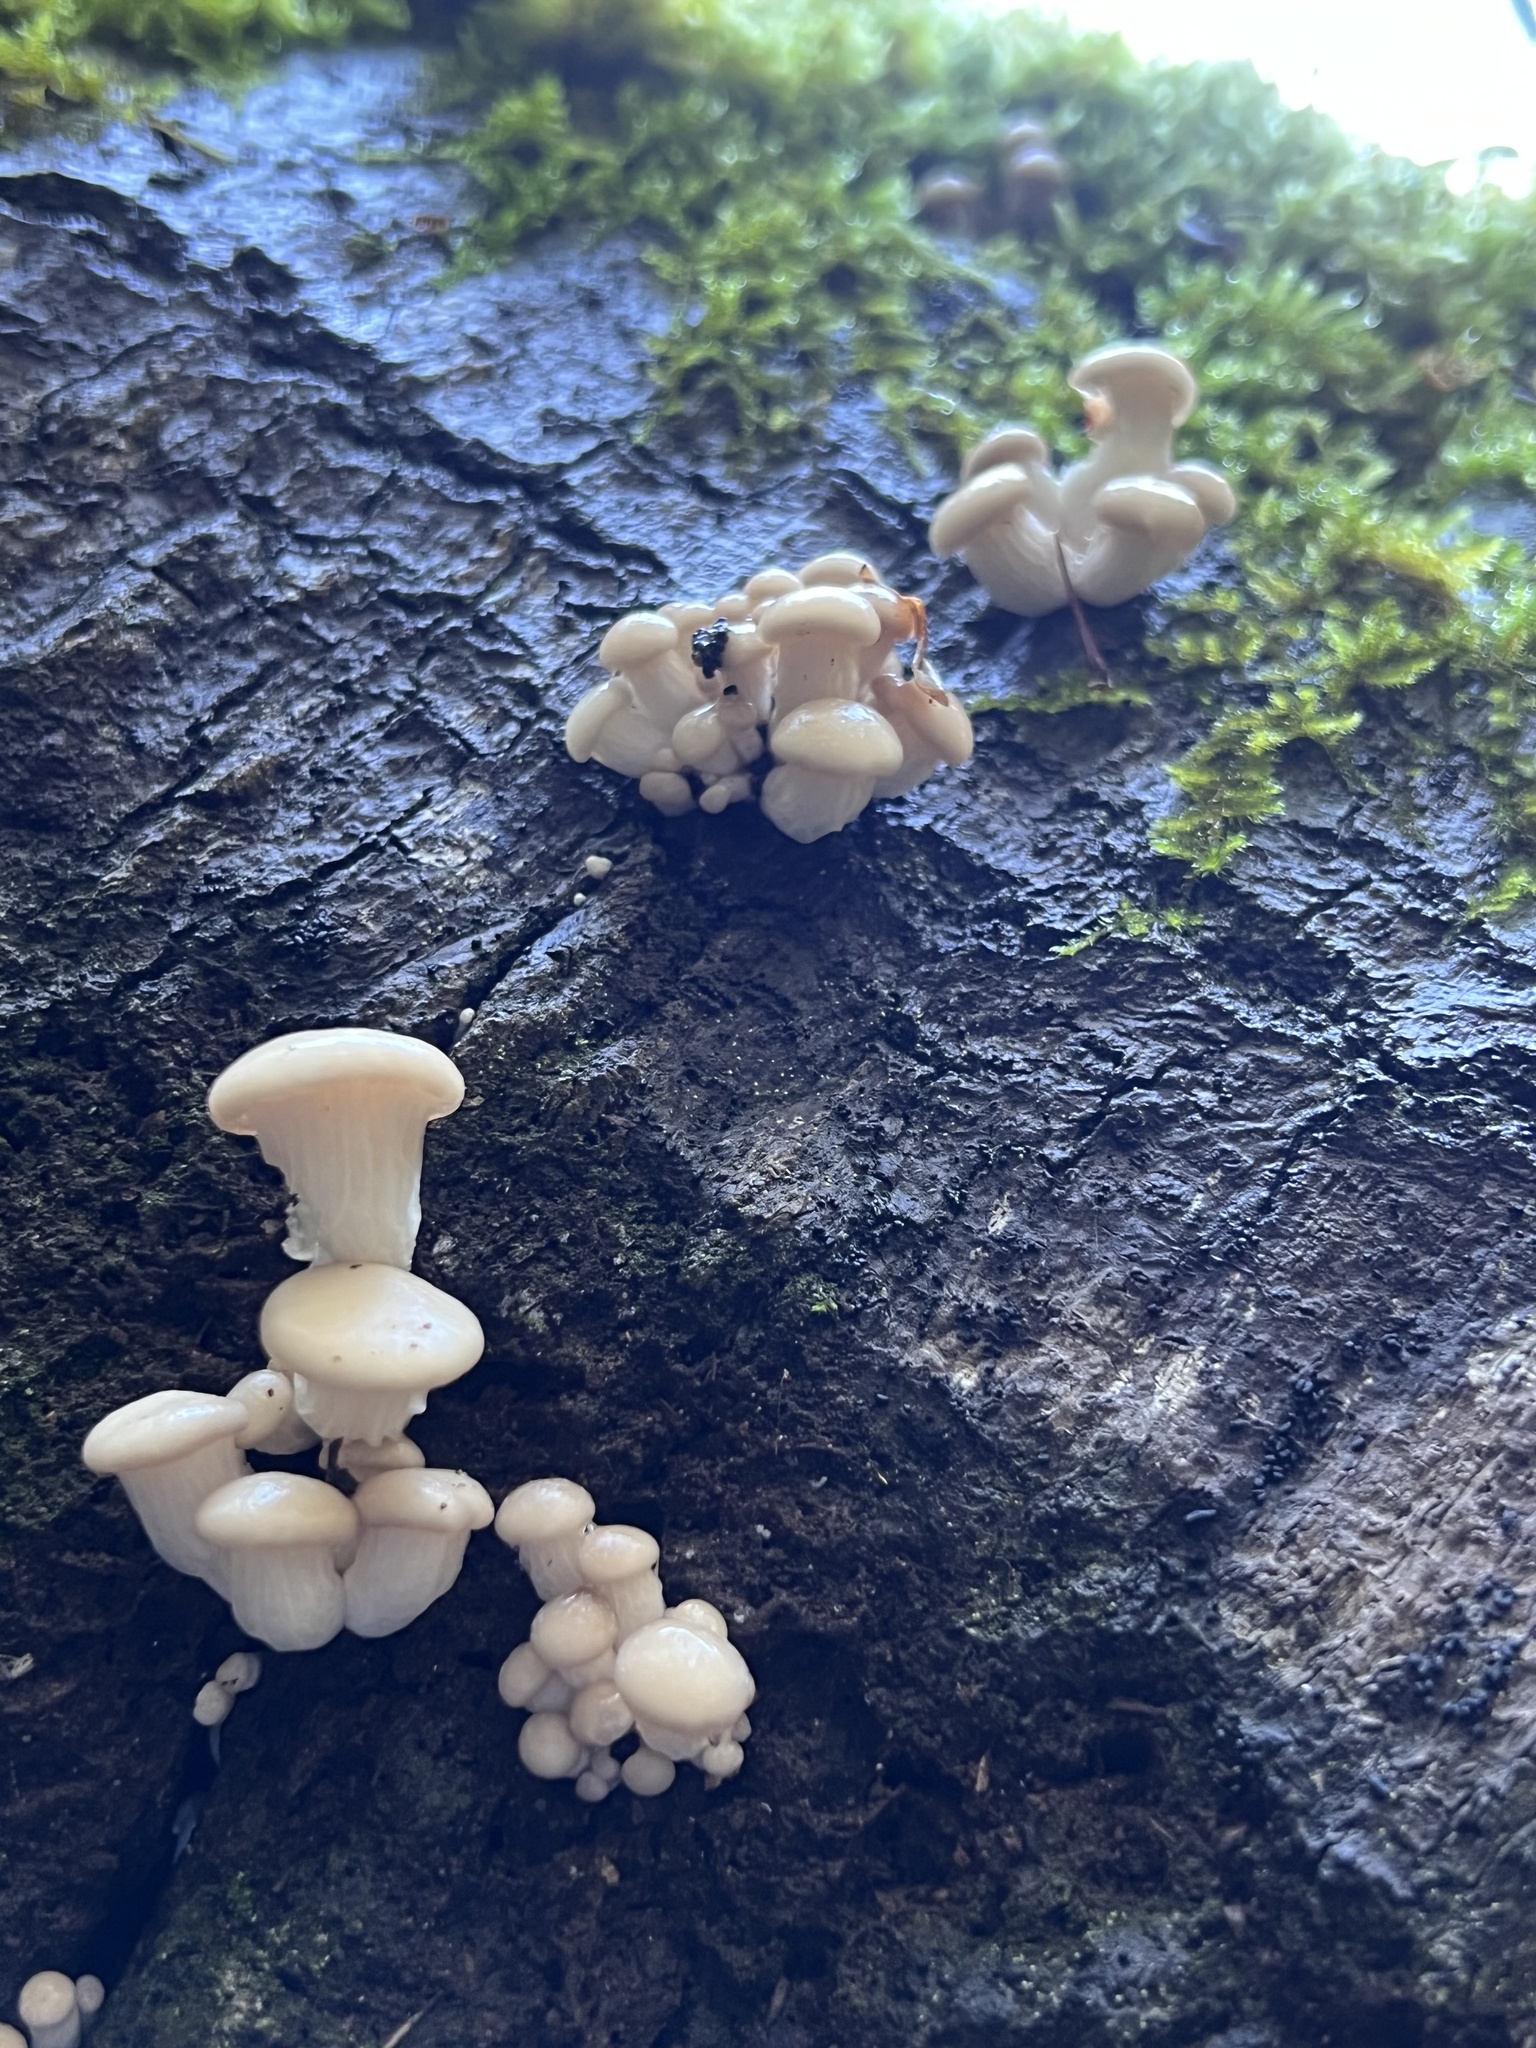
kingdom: Fungi
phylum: Basidiomycota
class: Agaricomycetes
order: Agaricales
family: Pleurotaceae
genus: Pleurotus
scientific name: Pleurotus ostreatus
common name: Oyster mushroom
